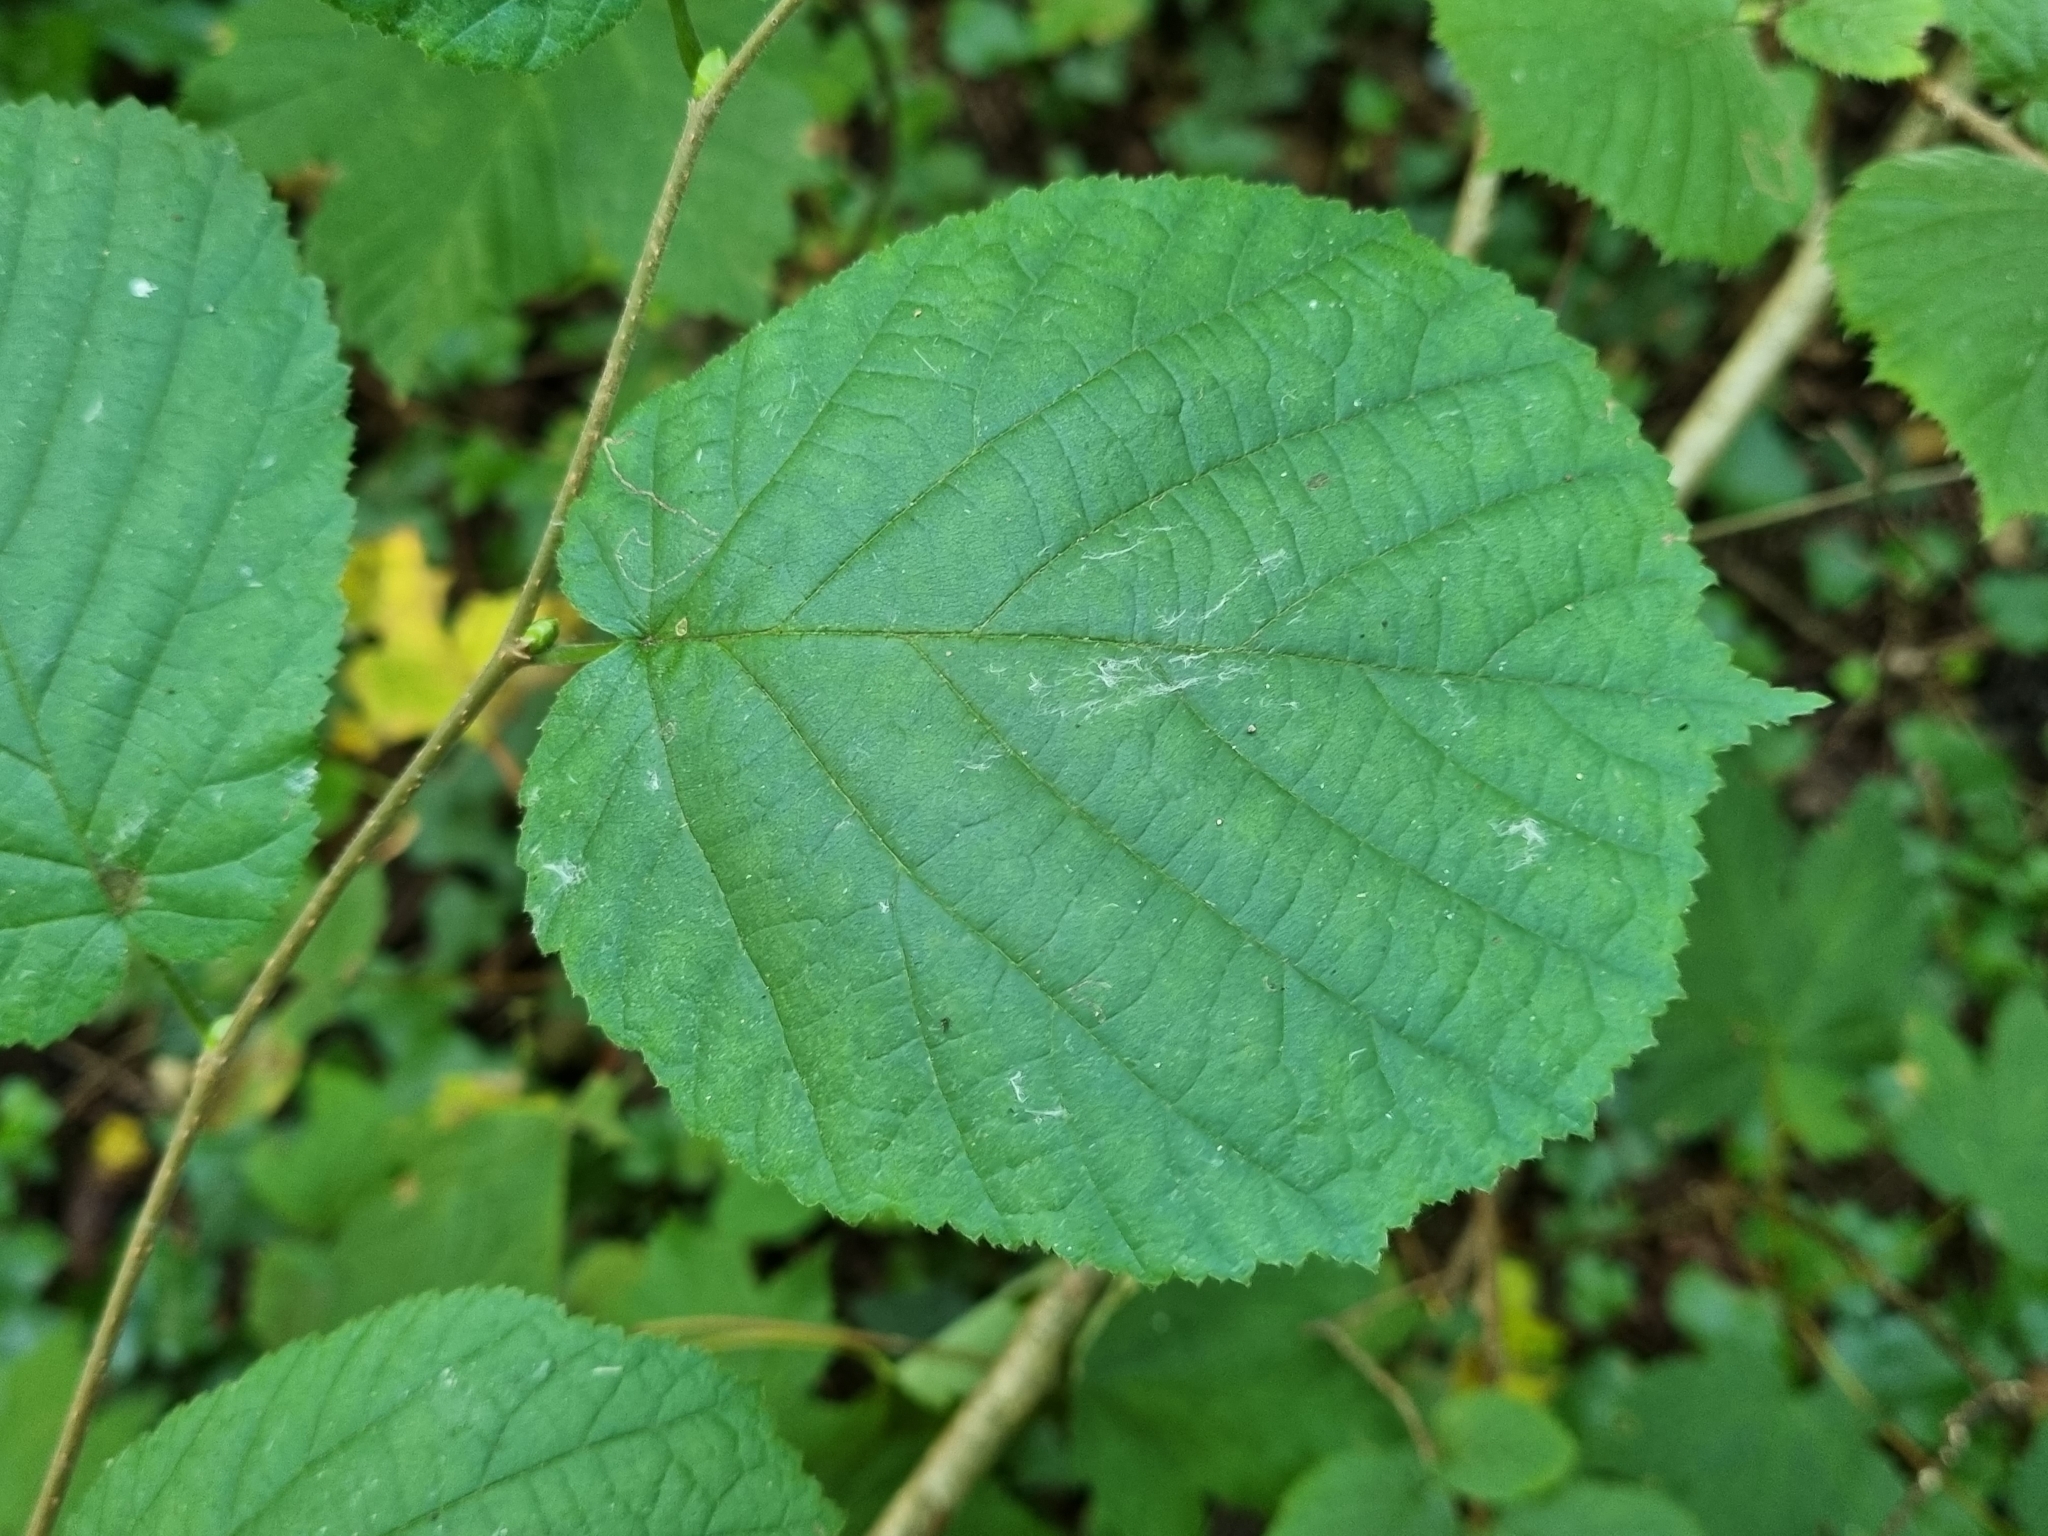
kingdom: Plantae
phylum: Tracheophyta
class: Magnoliopsida
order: Fagales
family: Betulaceae
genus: Corylus
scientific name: Corylus avellana
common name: European hazel
